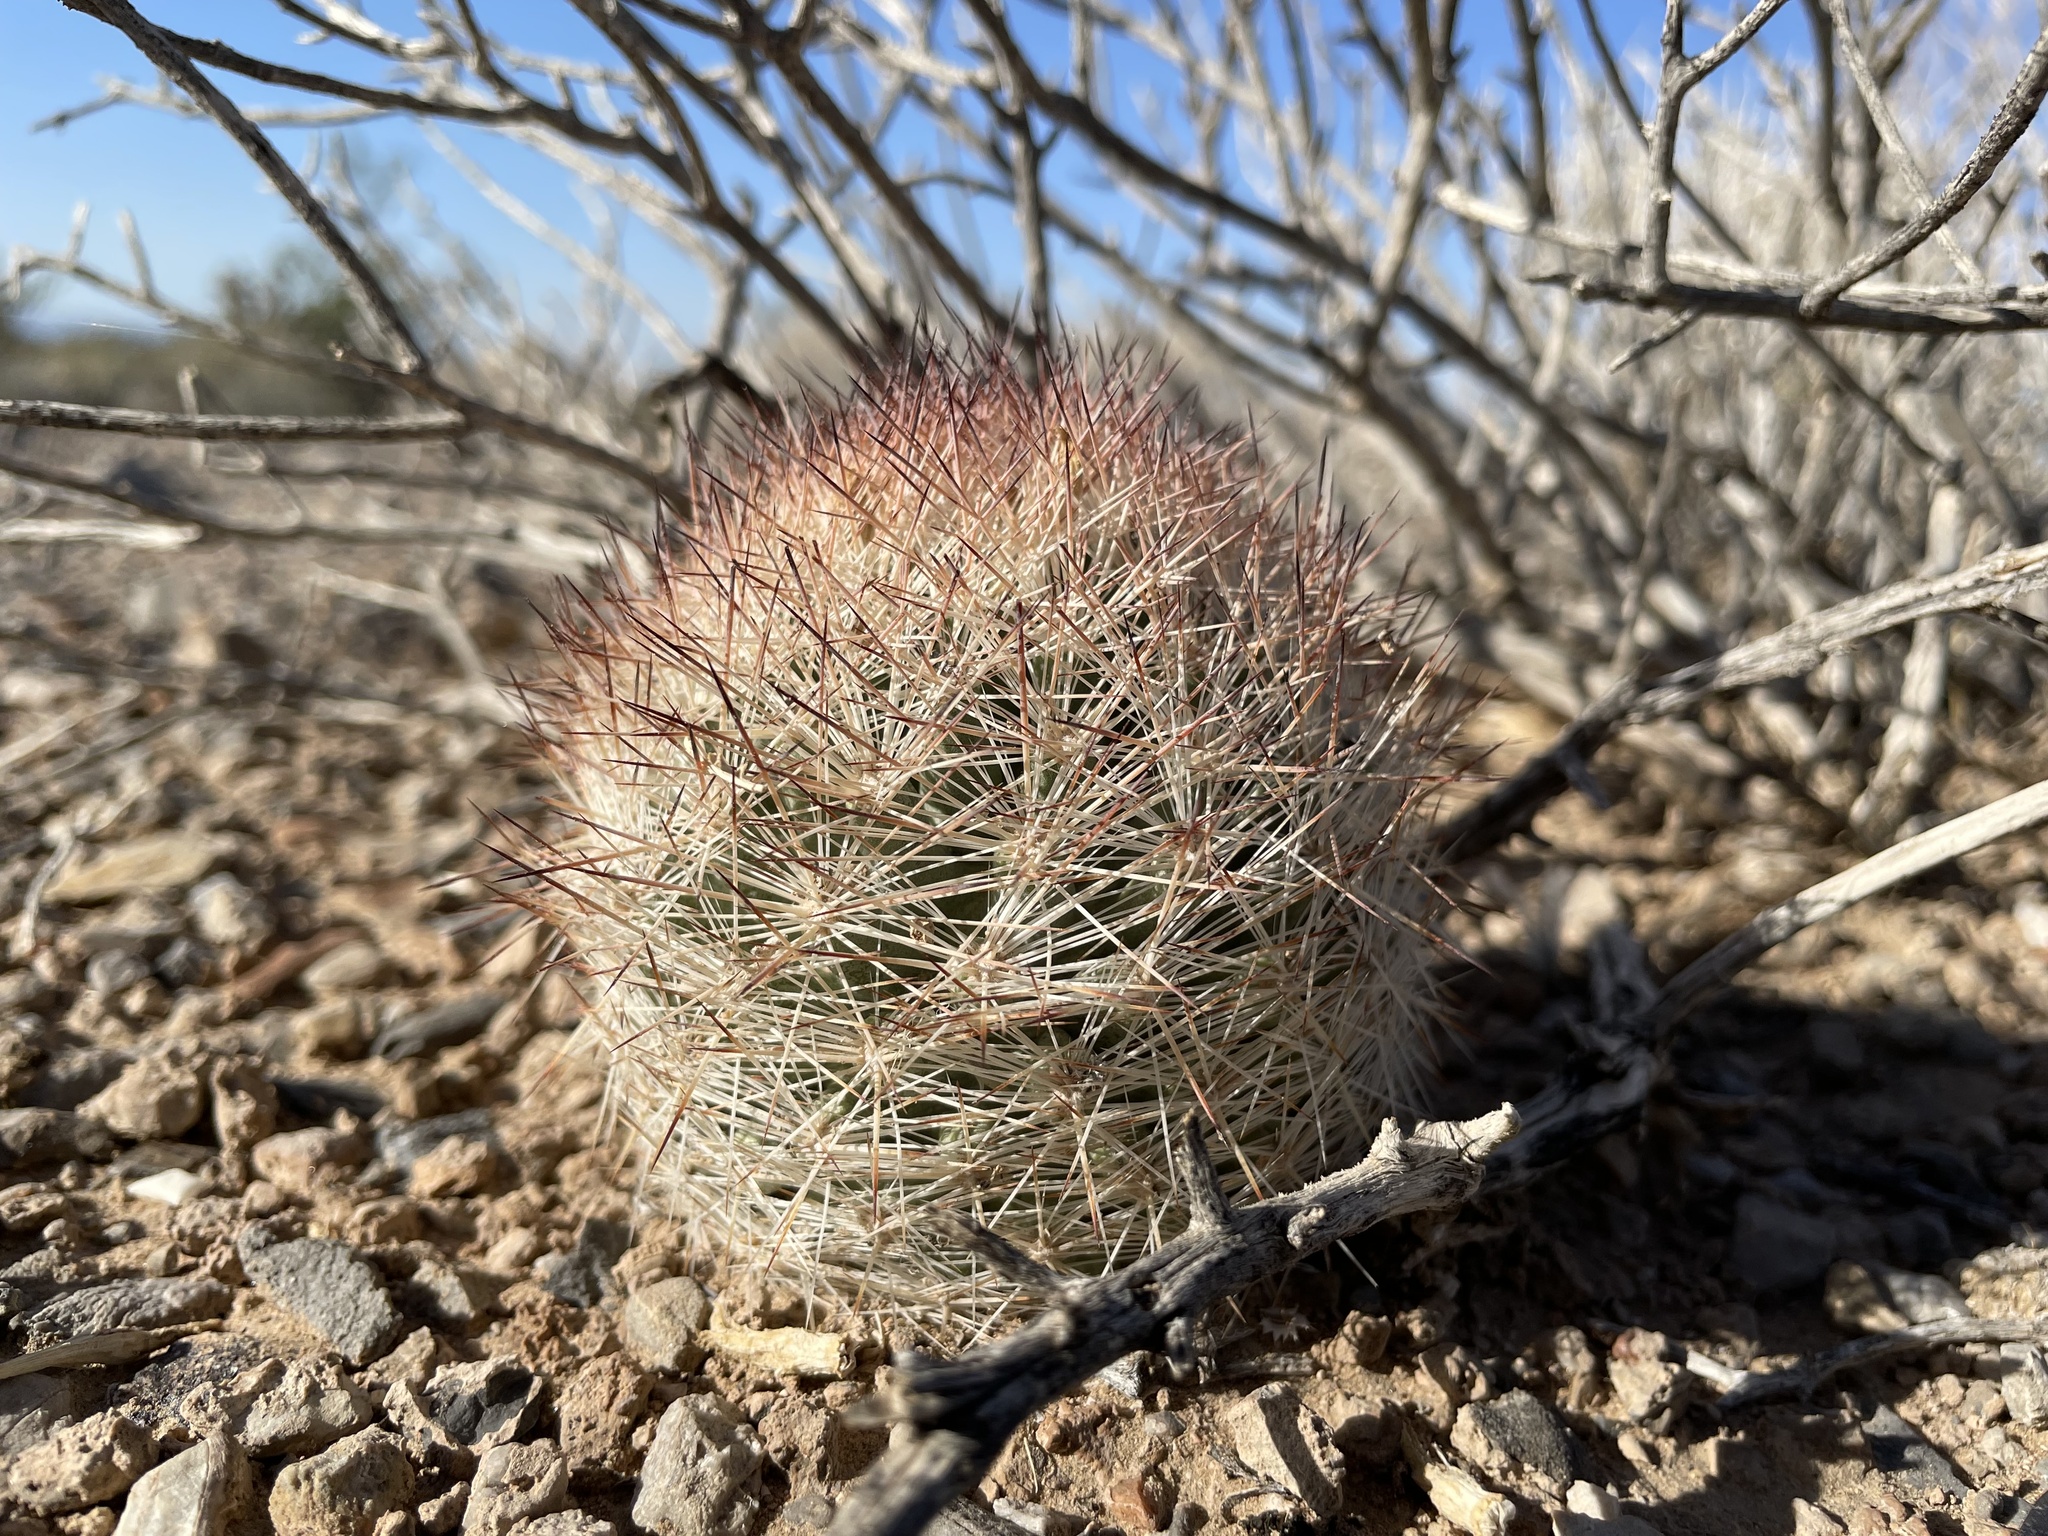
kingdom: Plantae
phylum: Tracheophyta
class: Magnoliopsida
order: Caryophyllales
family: Cactaceae
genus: Pelecyphora
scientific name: Pelecyphora dasyacantha
